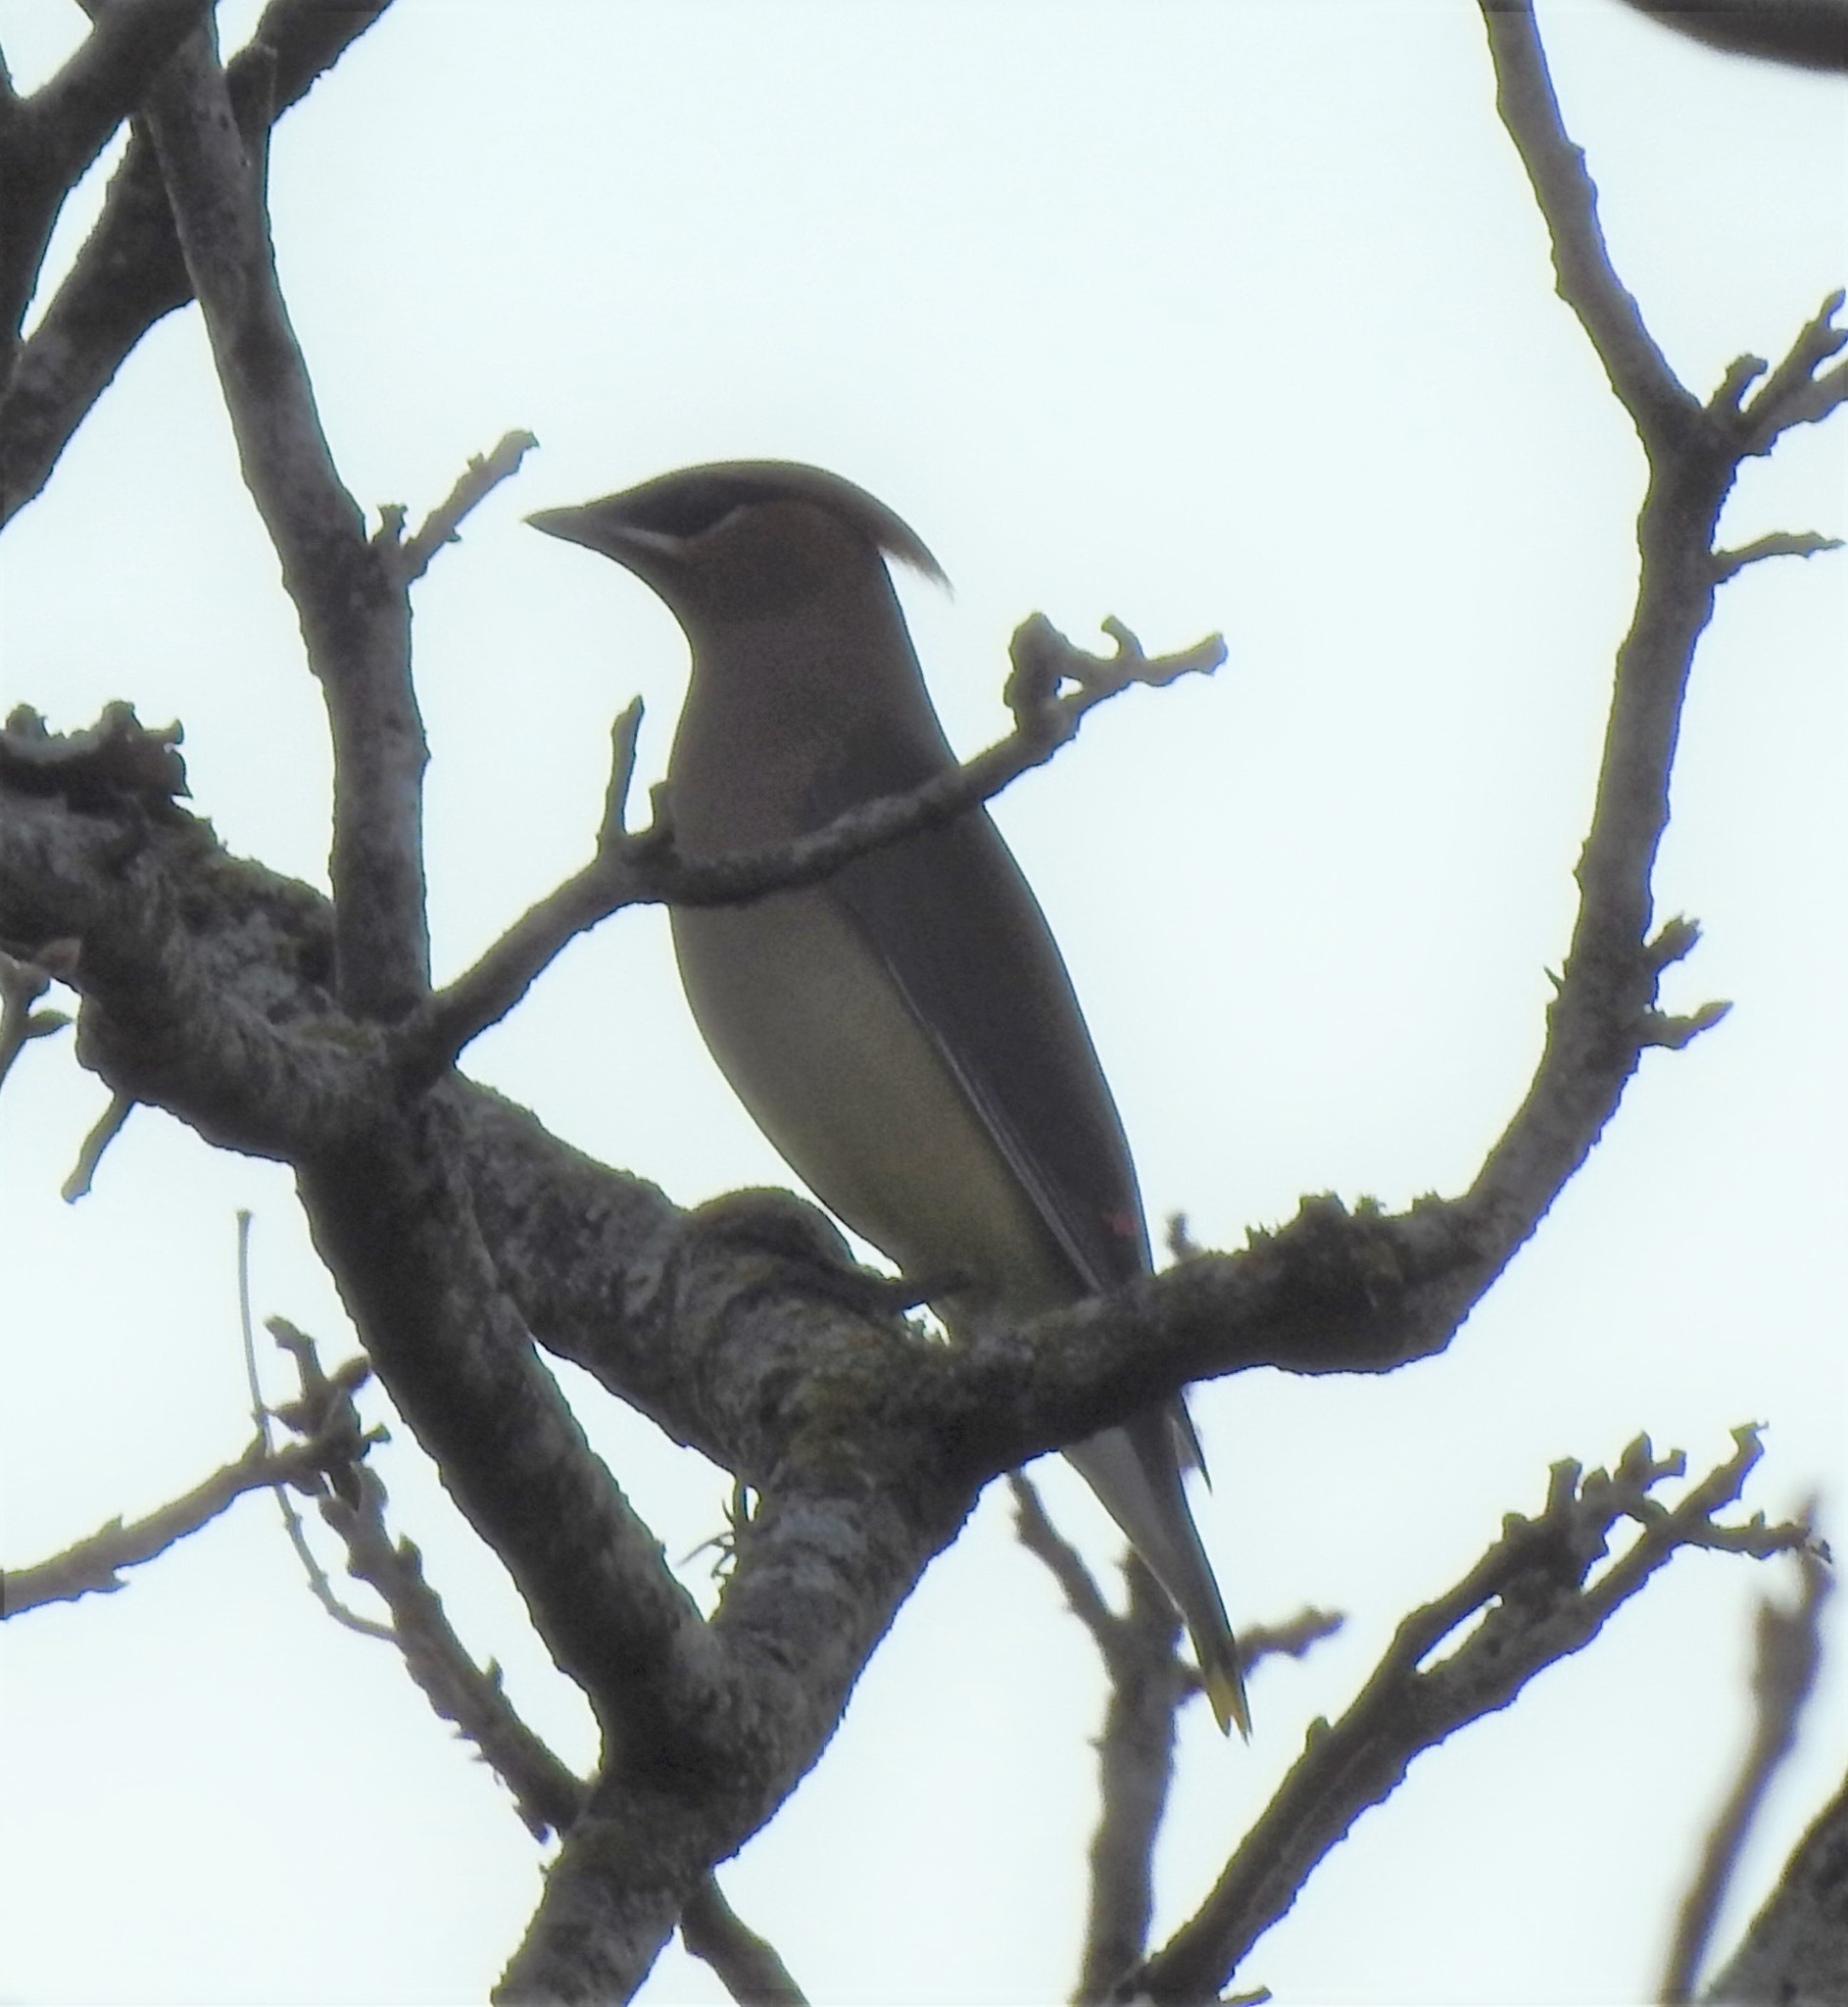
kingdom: Animalia
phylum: Chordata
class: Aves
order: Passeriformes
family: Bombycillidae
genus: Bombycilla
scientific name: Bombycilla cedrorum
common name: Cedar waxwing
